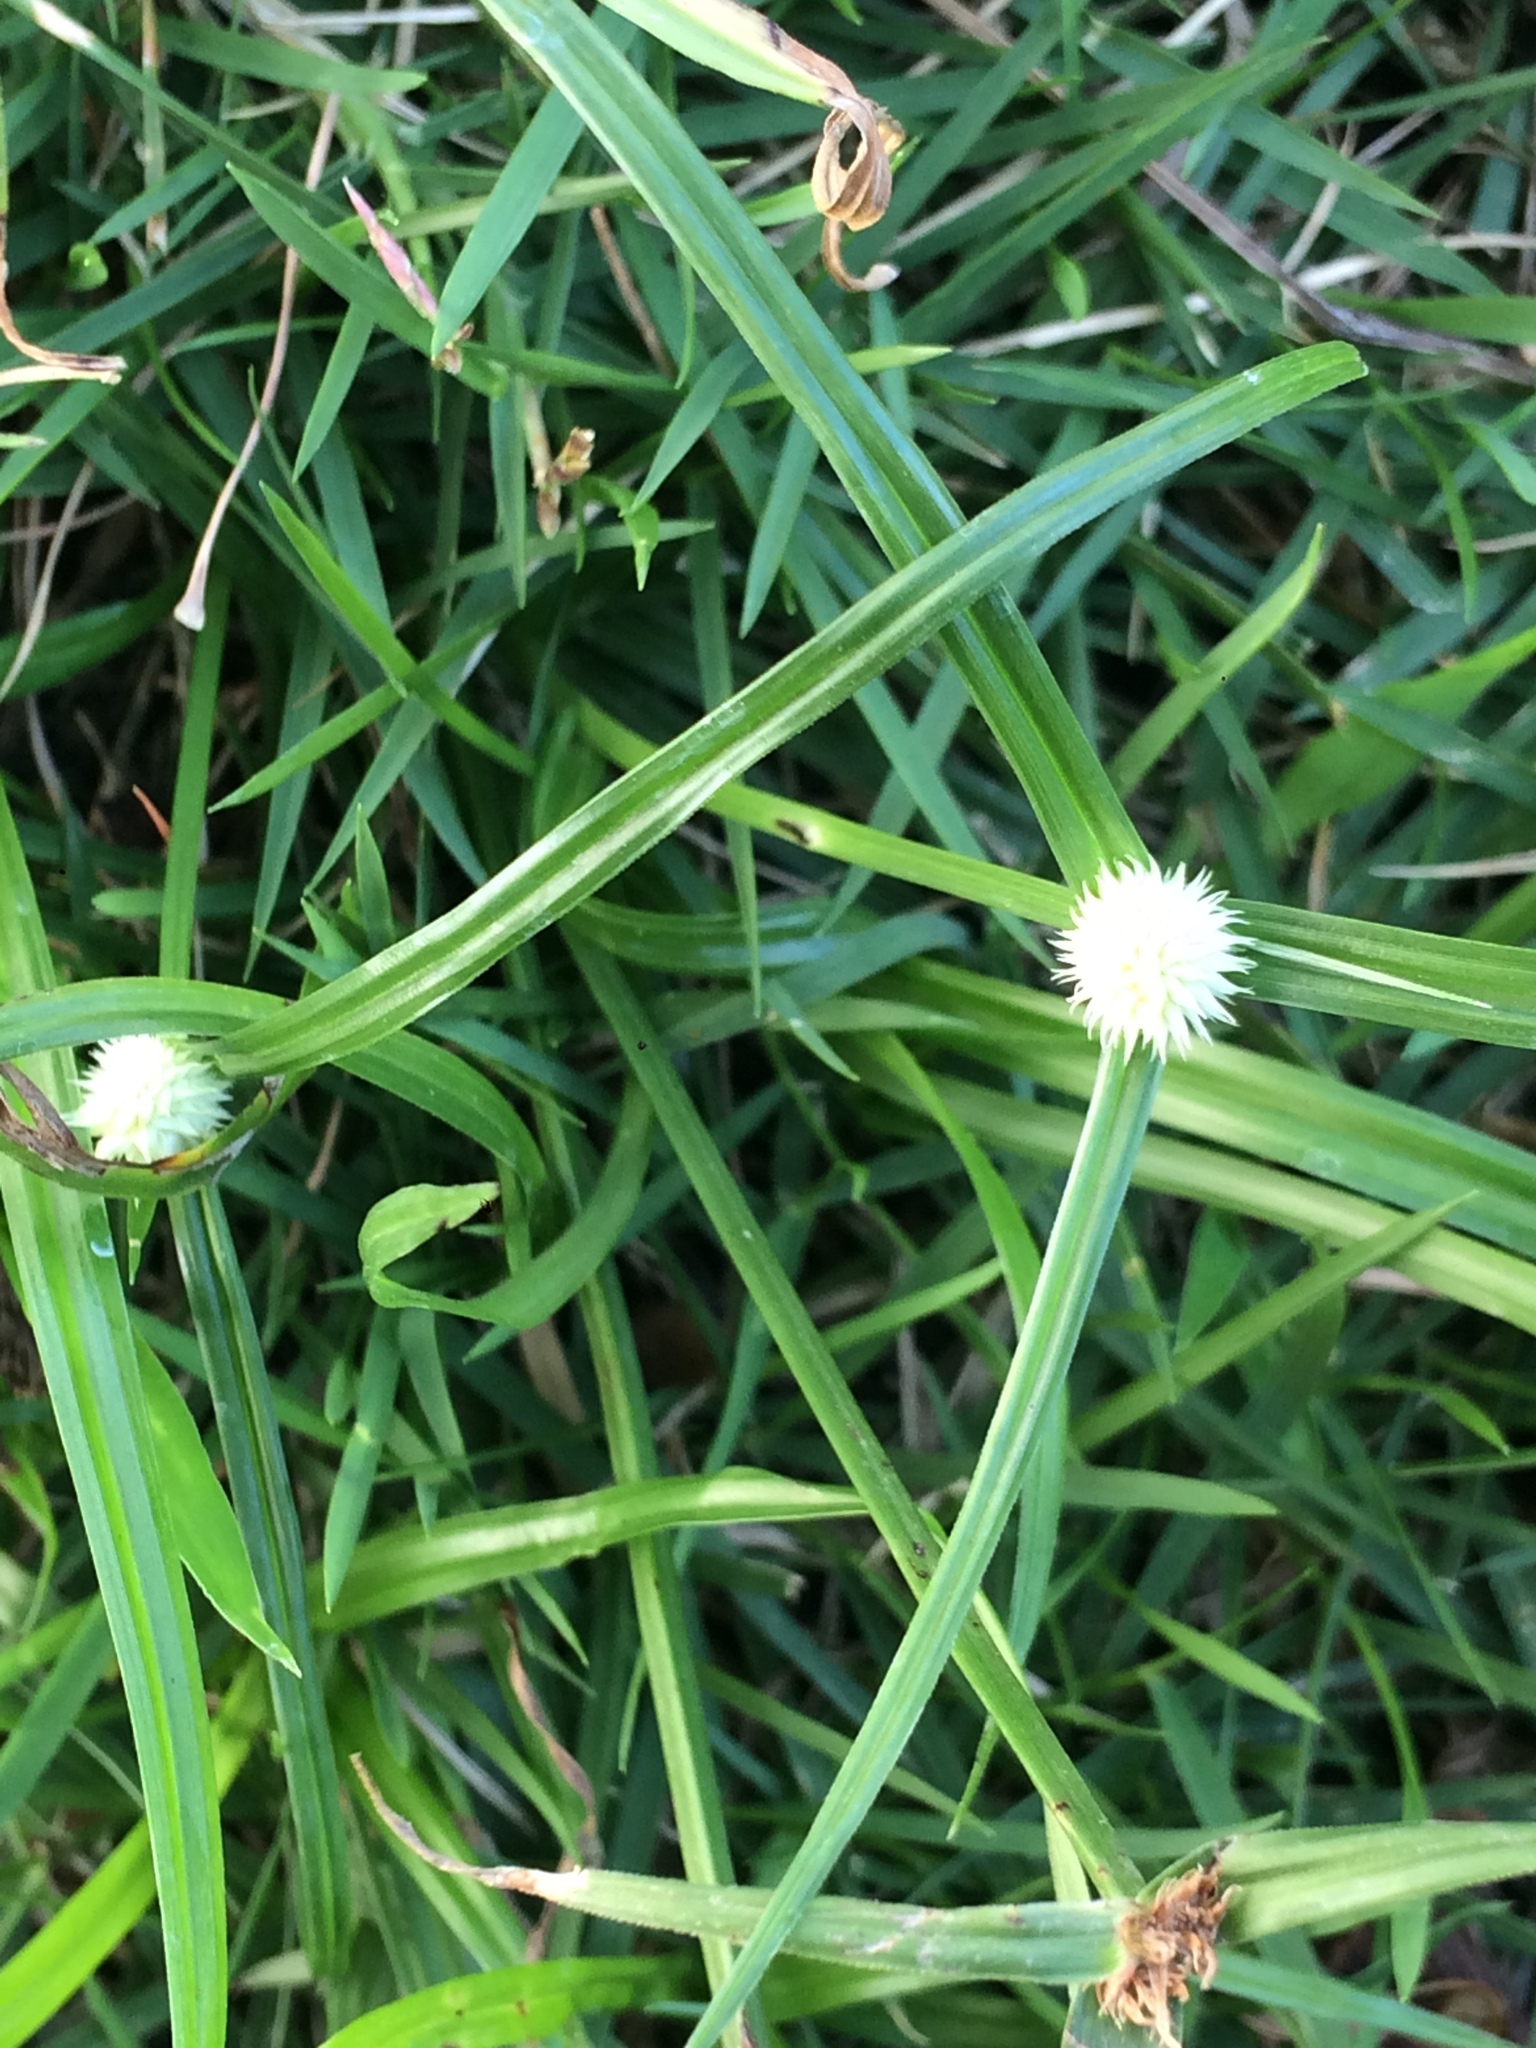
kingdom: Plantae
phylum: Tracheophyta
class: Liliopsida
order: Poales
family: Cyperaceae
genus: Cyperus
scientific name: Cyperus mindorensis
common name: Flatsedge
